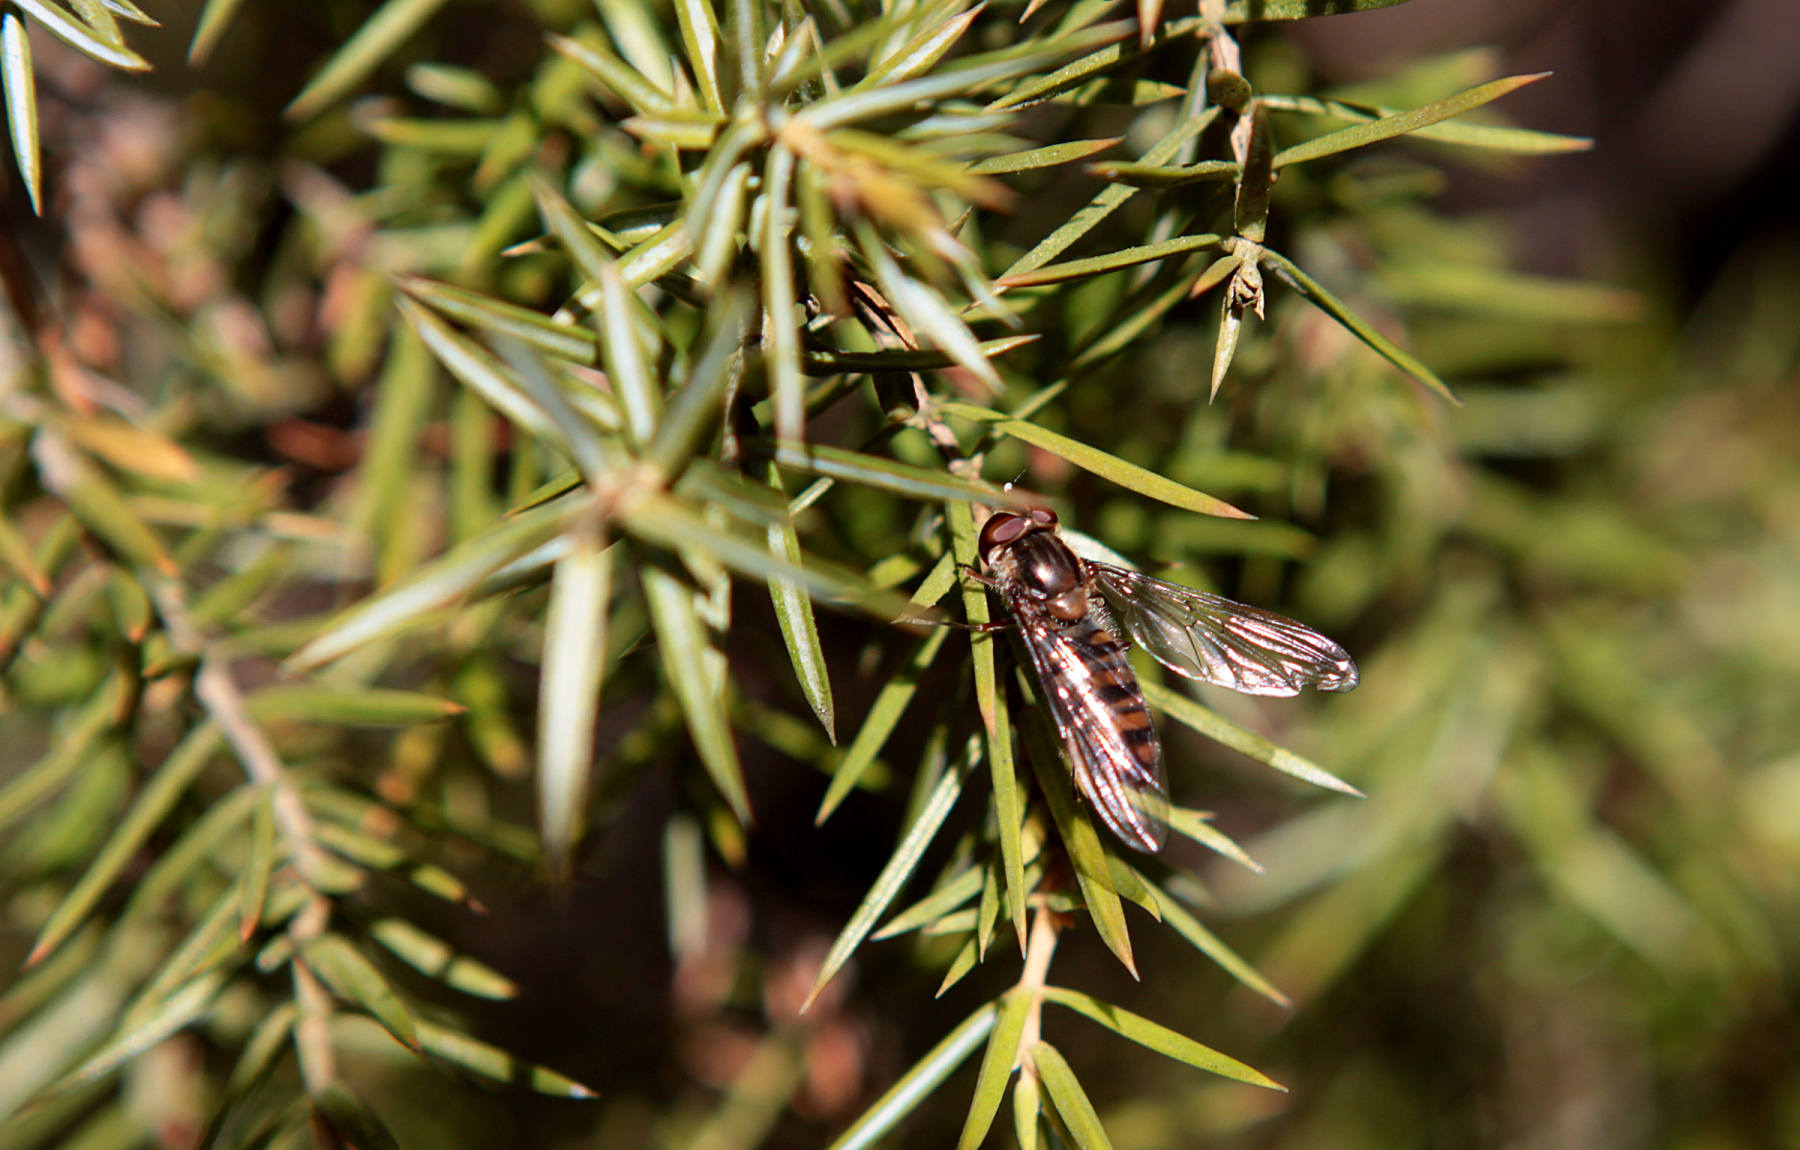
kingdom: Animalia
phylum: Arthropoda
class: Insecta
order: Diptera
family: Syrphidae
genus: Episyrphus
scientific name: Episyrphus balteatus
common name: Marmalade hoverfly
